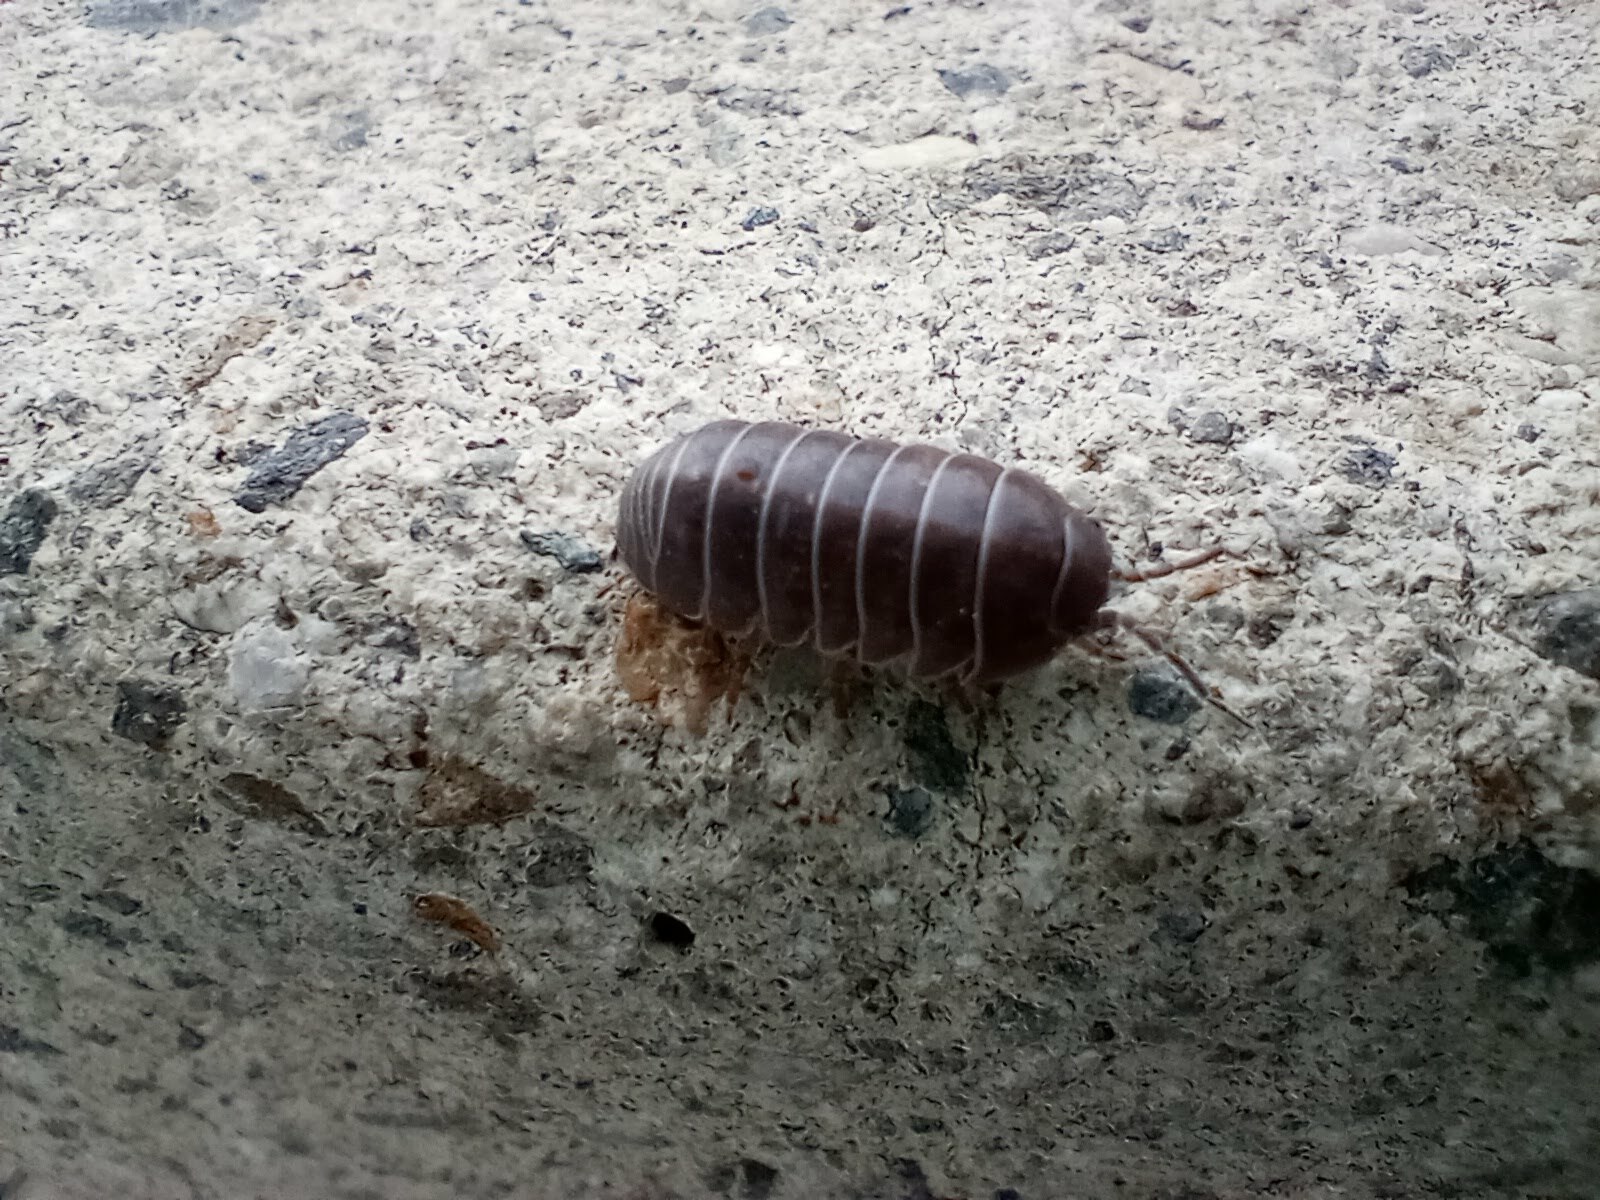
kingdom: Animalia
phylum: Arthropoda
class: Malacostraca
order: Isopoda
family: Armadillidiidae
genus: Armadillidium
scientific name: Armadillidium vulgare
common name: Common pill woodlouse
